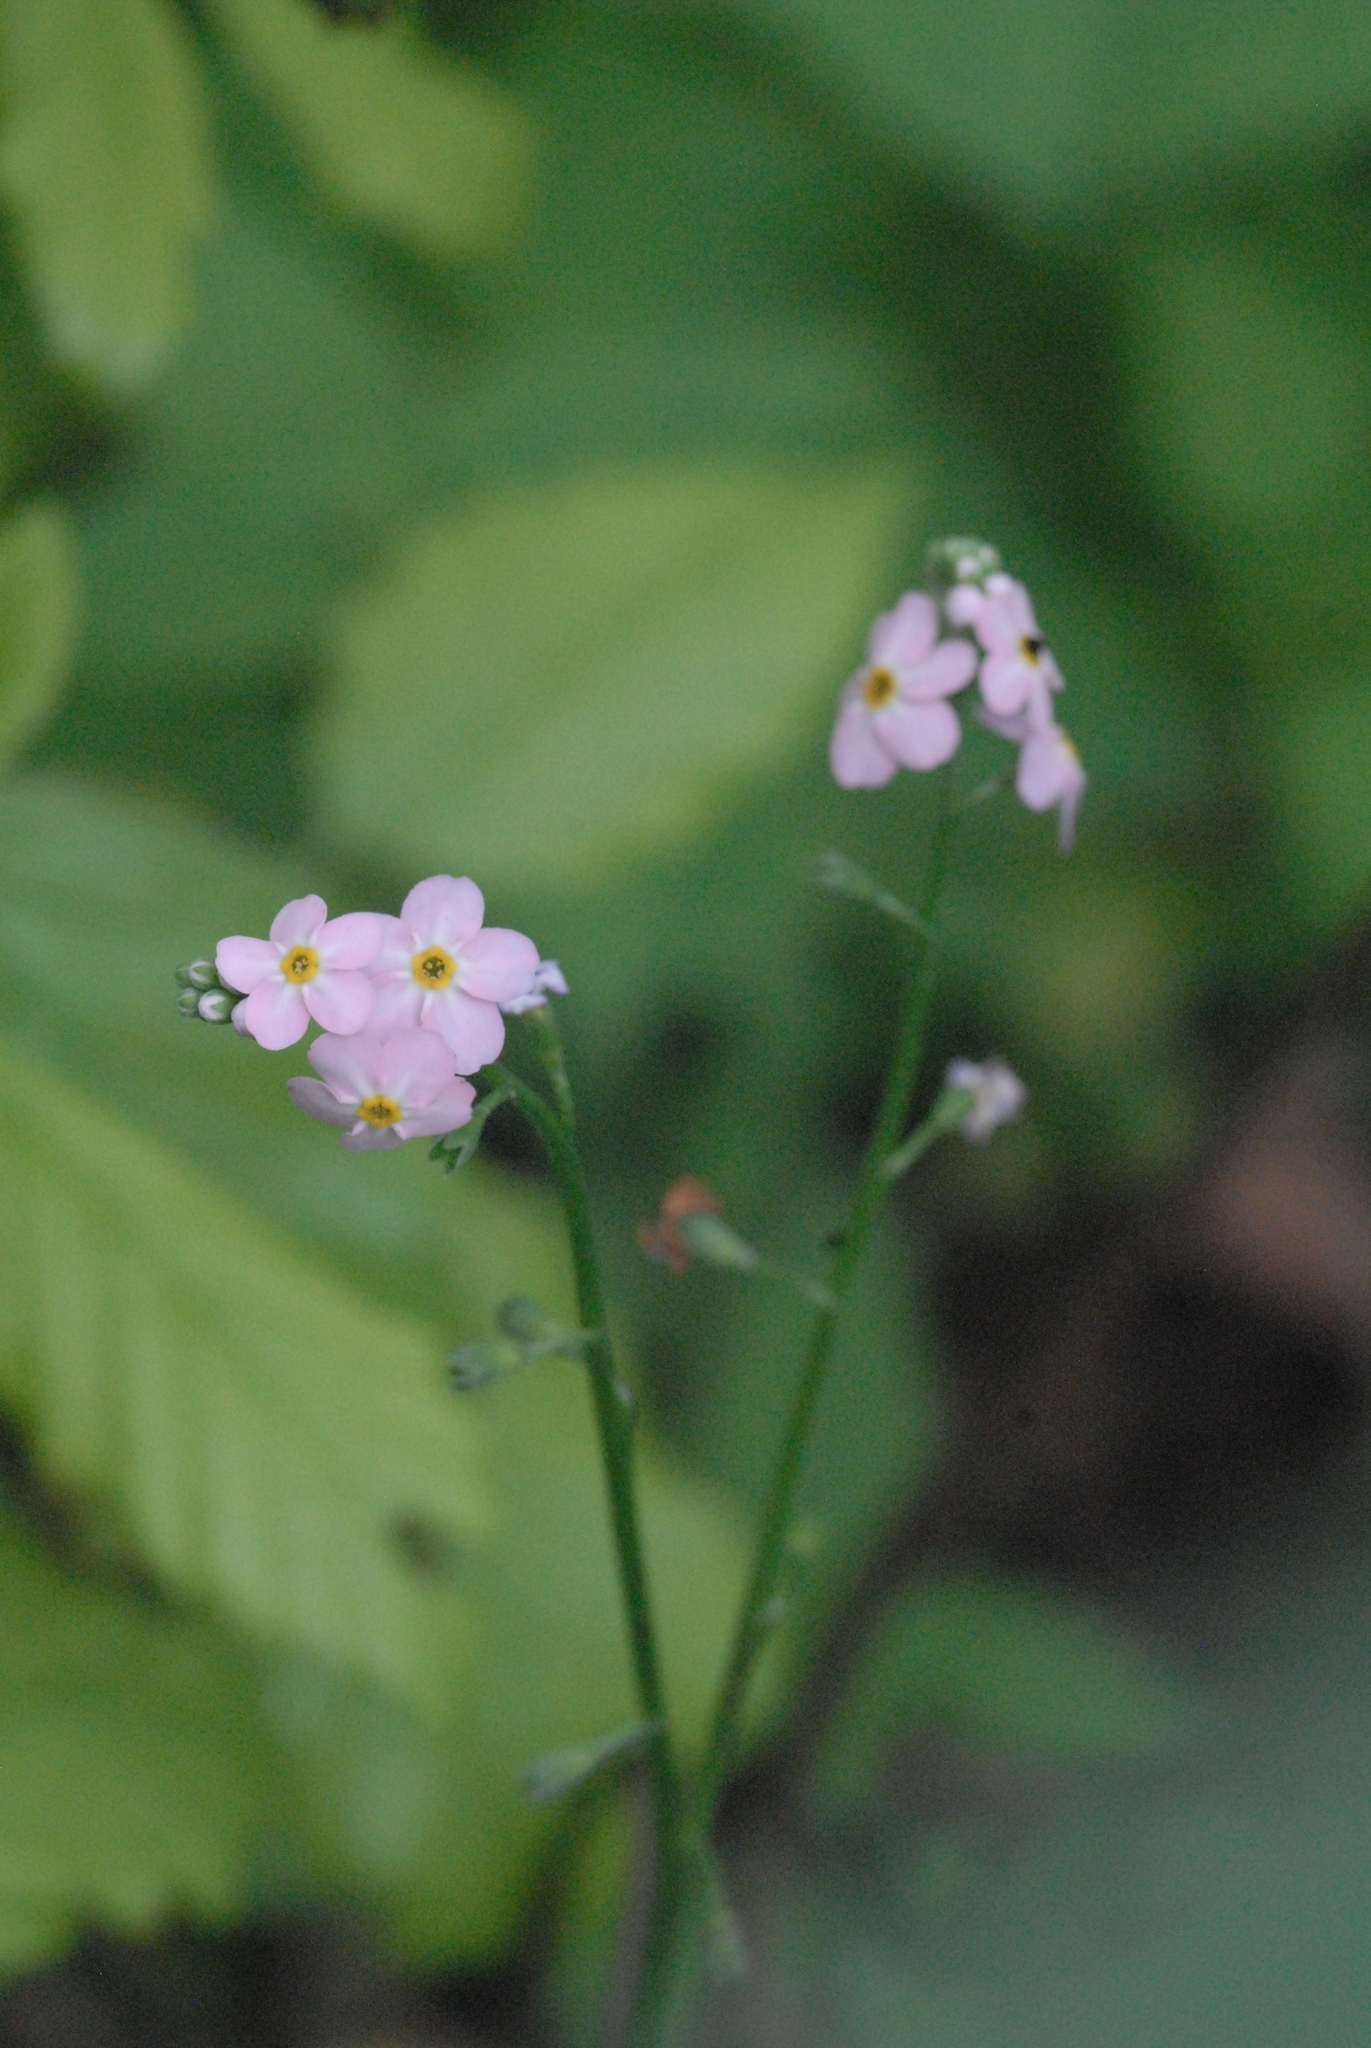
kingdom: Plantae
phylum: Tracheophyta
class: Magnoliopsida
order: Boraginales
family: Boraginaceae
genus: Myosotis
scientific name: Myosotis scorpioides
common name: Water forget-me-not
